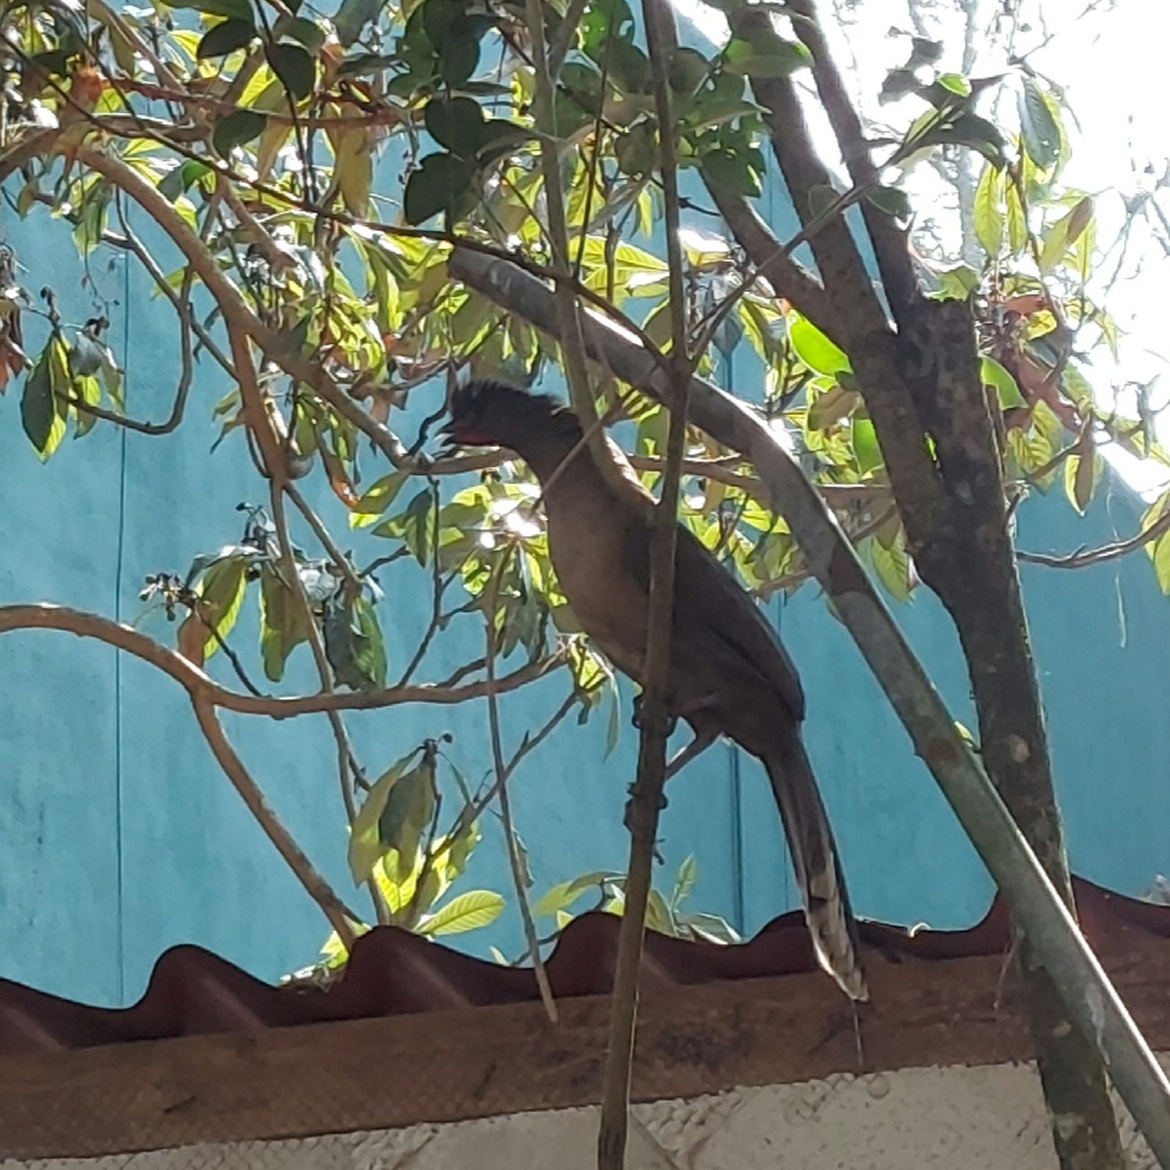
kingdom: Animalia
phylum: Chordata
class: Aves
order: Galliformes
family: Cracidae
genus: Ortalis
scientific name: Ortalis vetula
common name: Plain chachalaca
